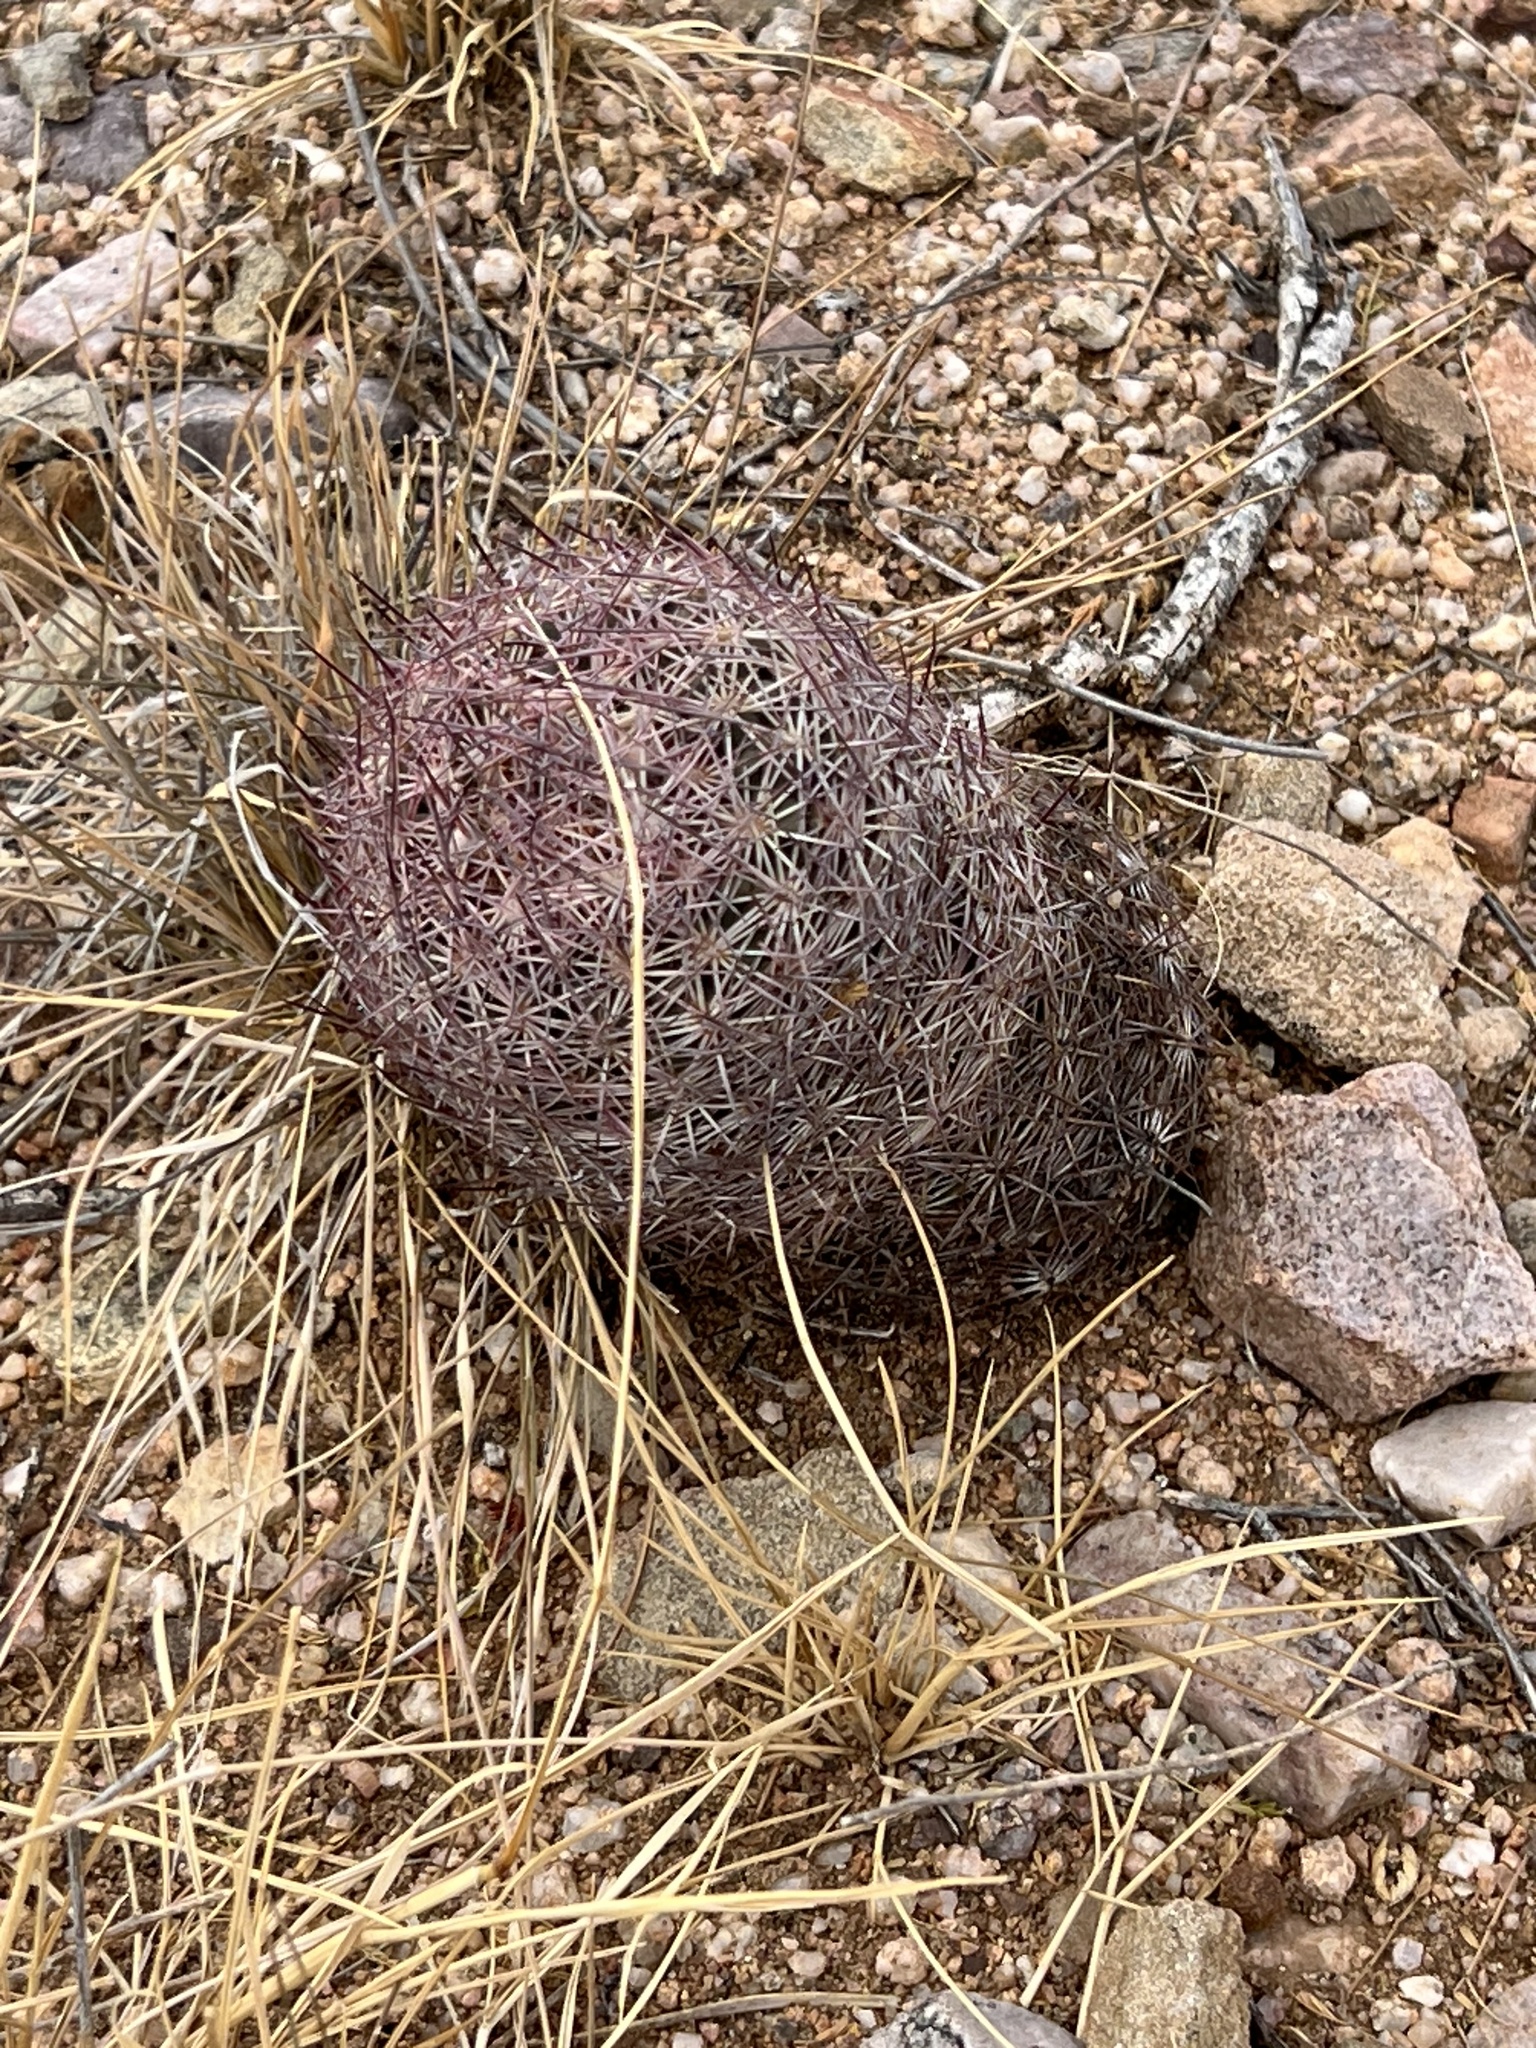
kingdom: Plantae
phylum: Tracheophyta
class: Magnoliopsida
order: Caryophyllales
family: Cactaceae
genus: Sclerocactus
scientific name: Sclerocactus johnsonii
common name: Eight-spine fishhook cactus
